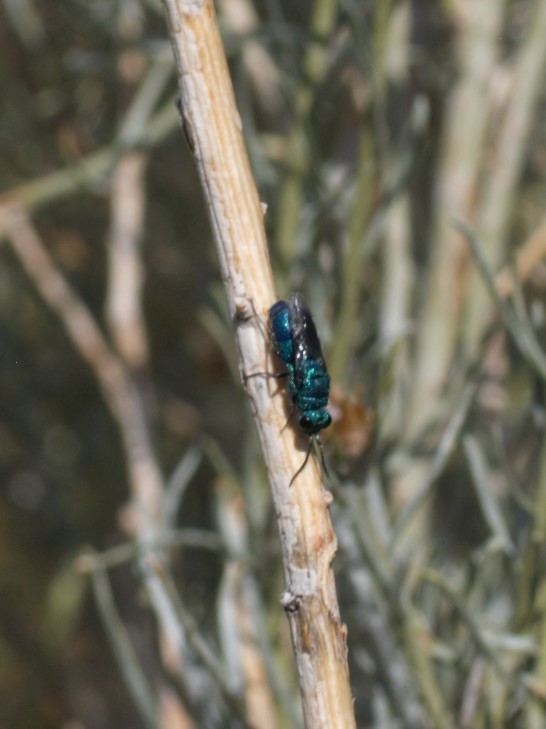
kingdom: Animalia
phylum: Arthropoda
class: Insecta
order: Hymenoptera
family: Chrysididae
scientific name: Chrysididae
